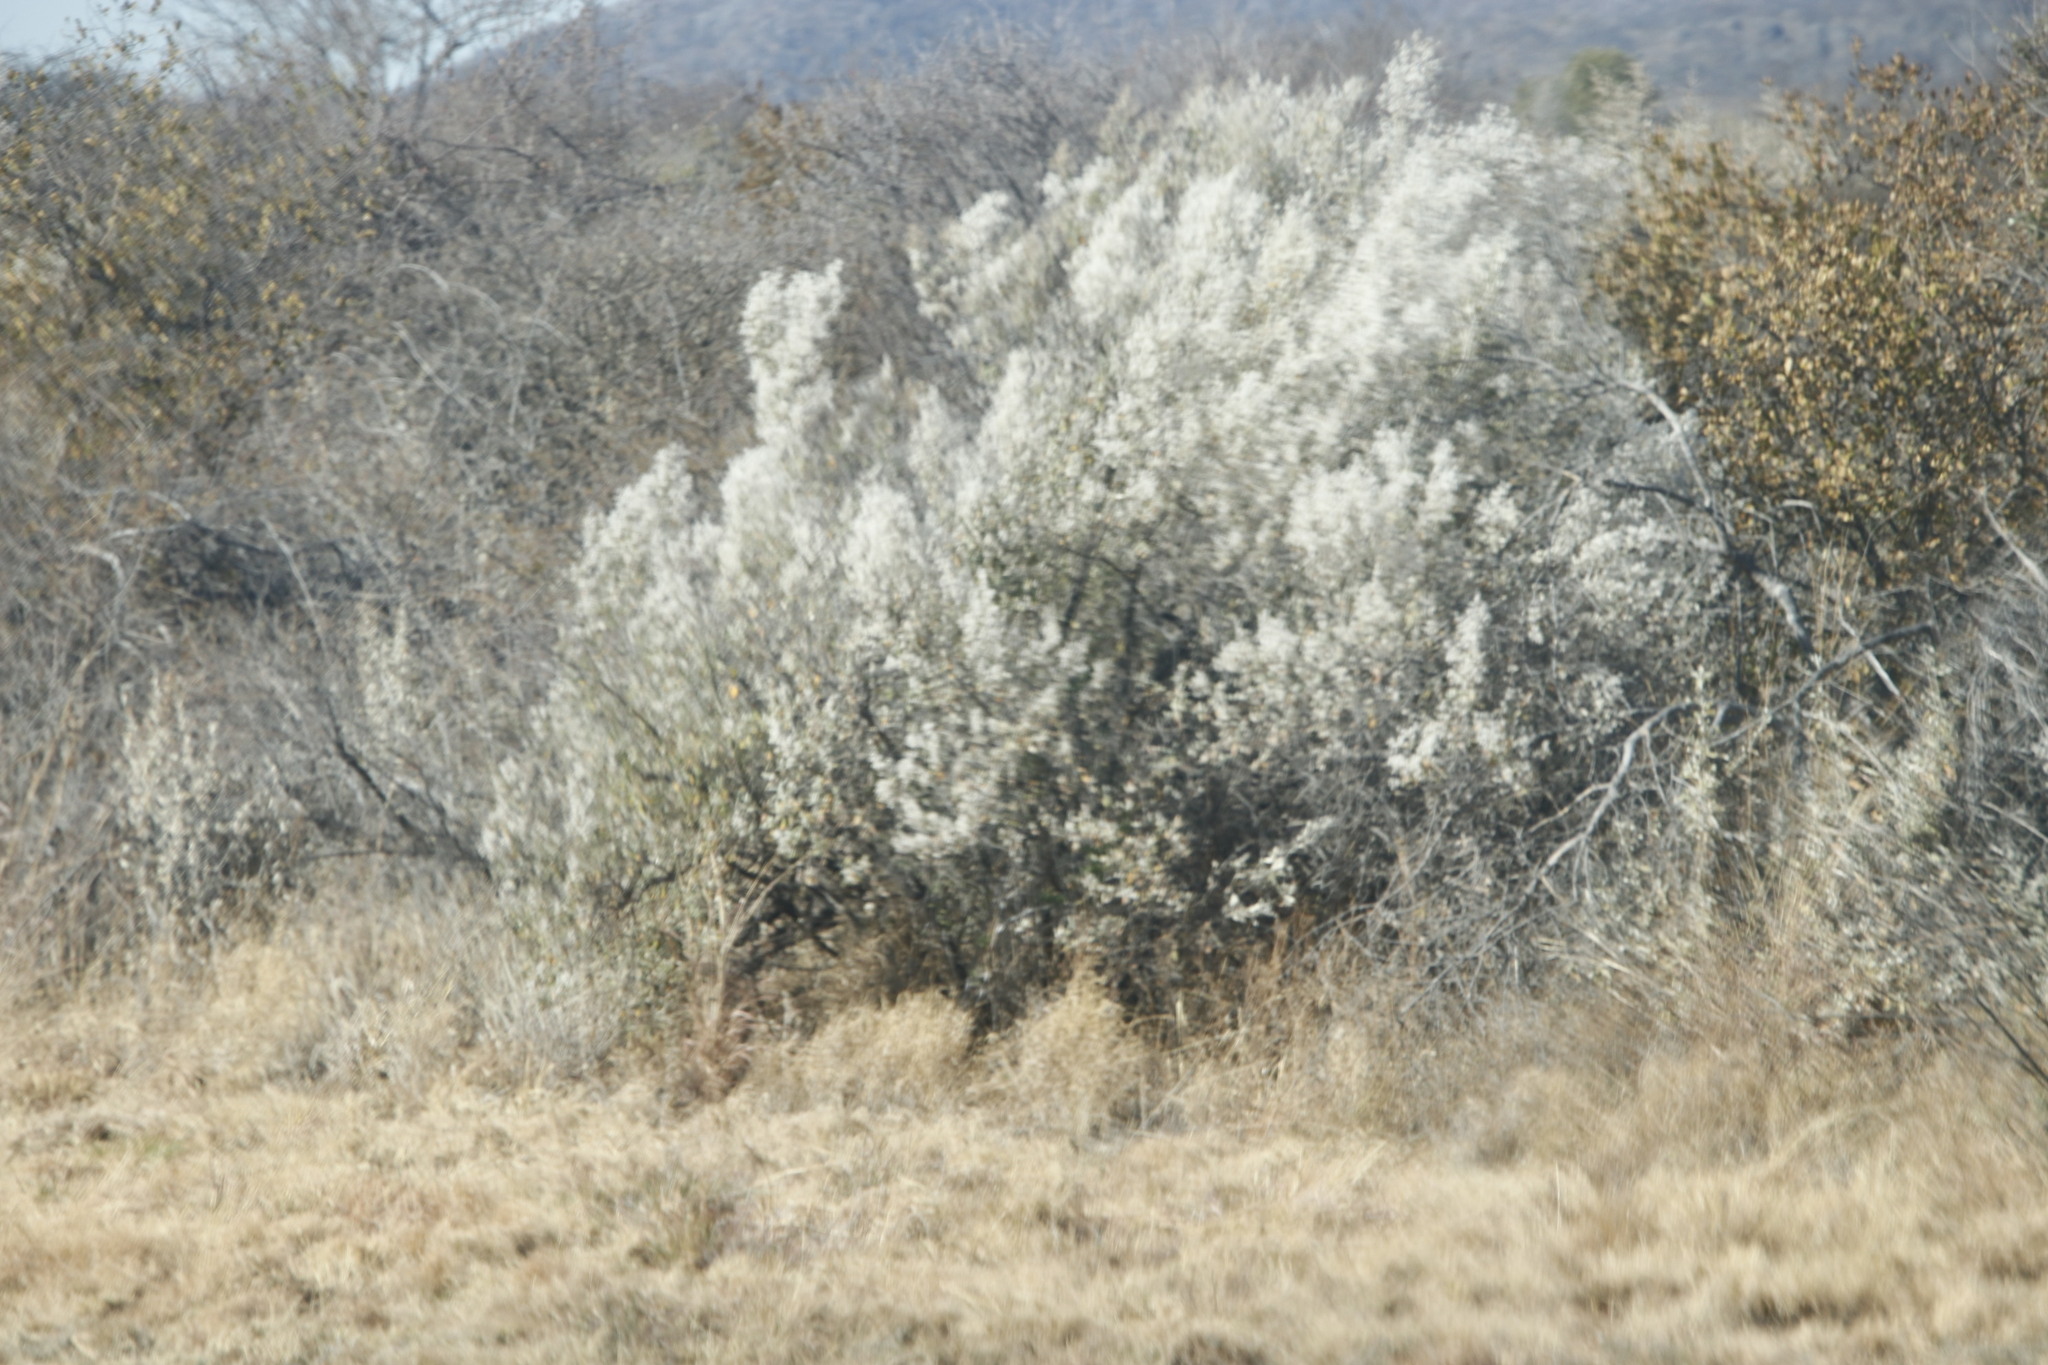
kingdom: Plantae
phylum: Tracheophyta
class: Magnoliopsida
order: Asterales
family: Asteraceae
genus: Tarchonanthus
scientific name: Tarchonanthus camphoratus
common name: Camphorwood
